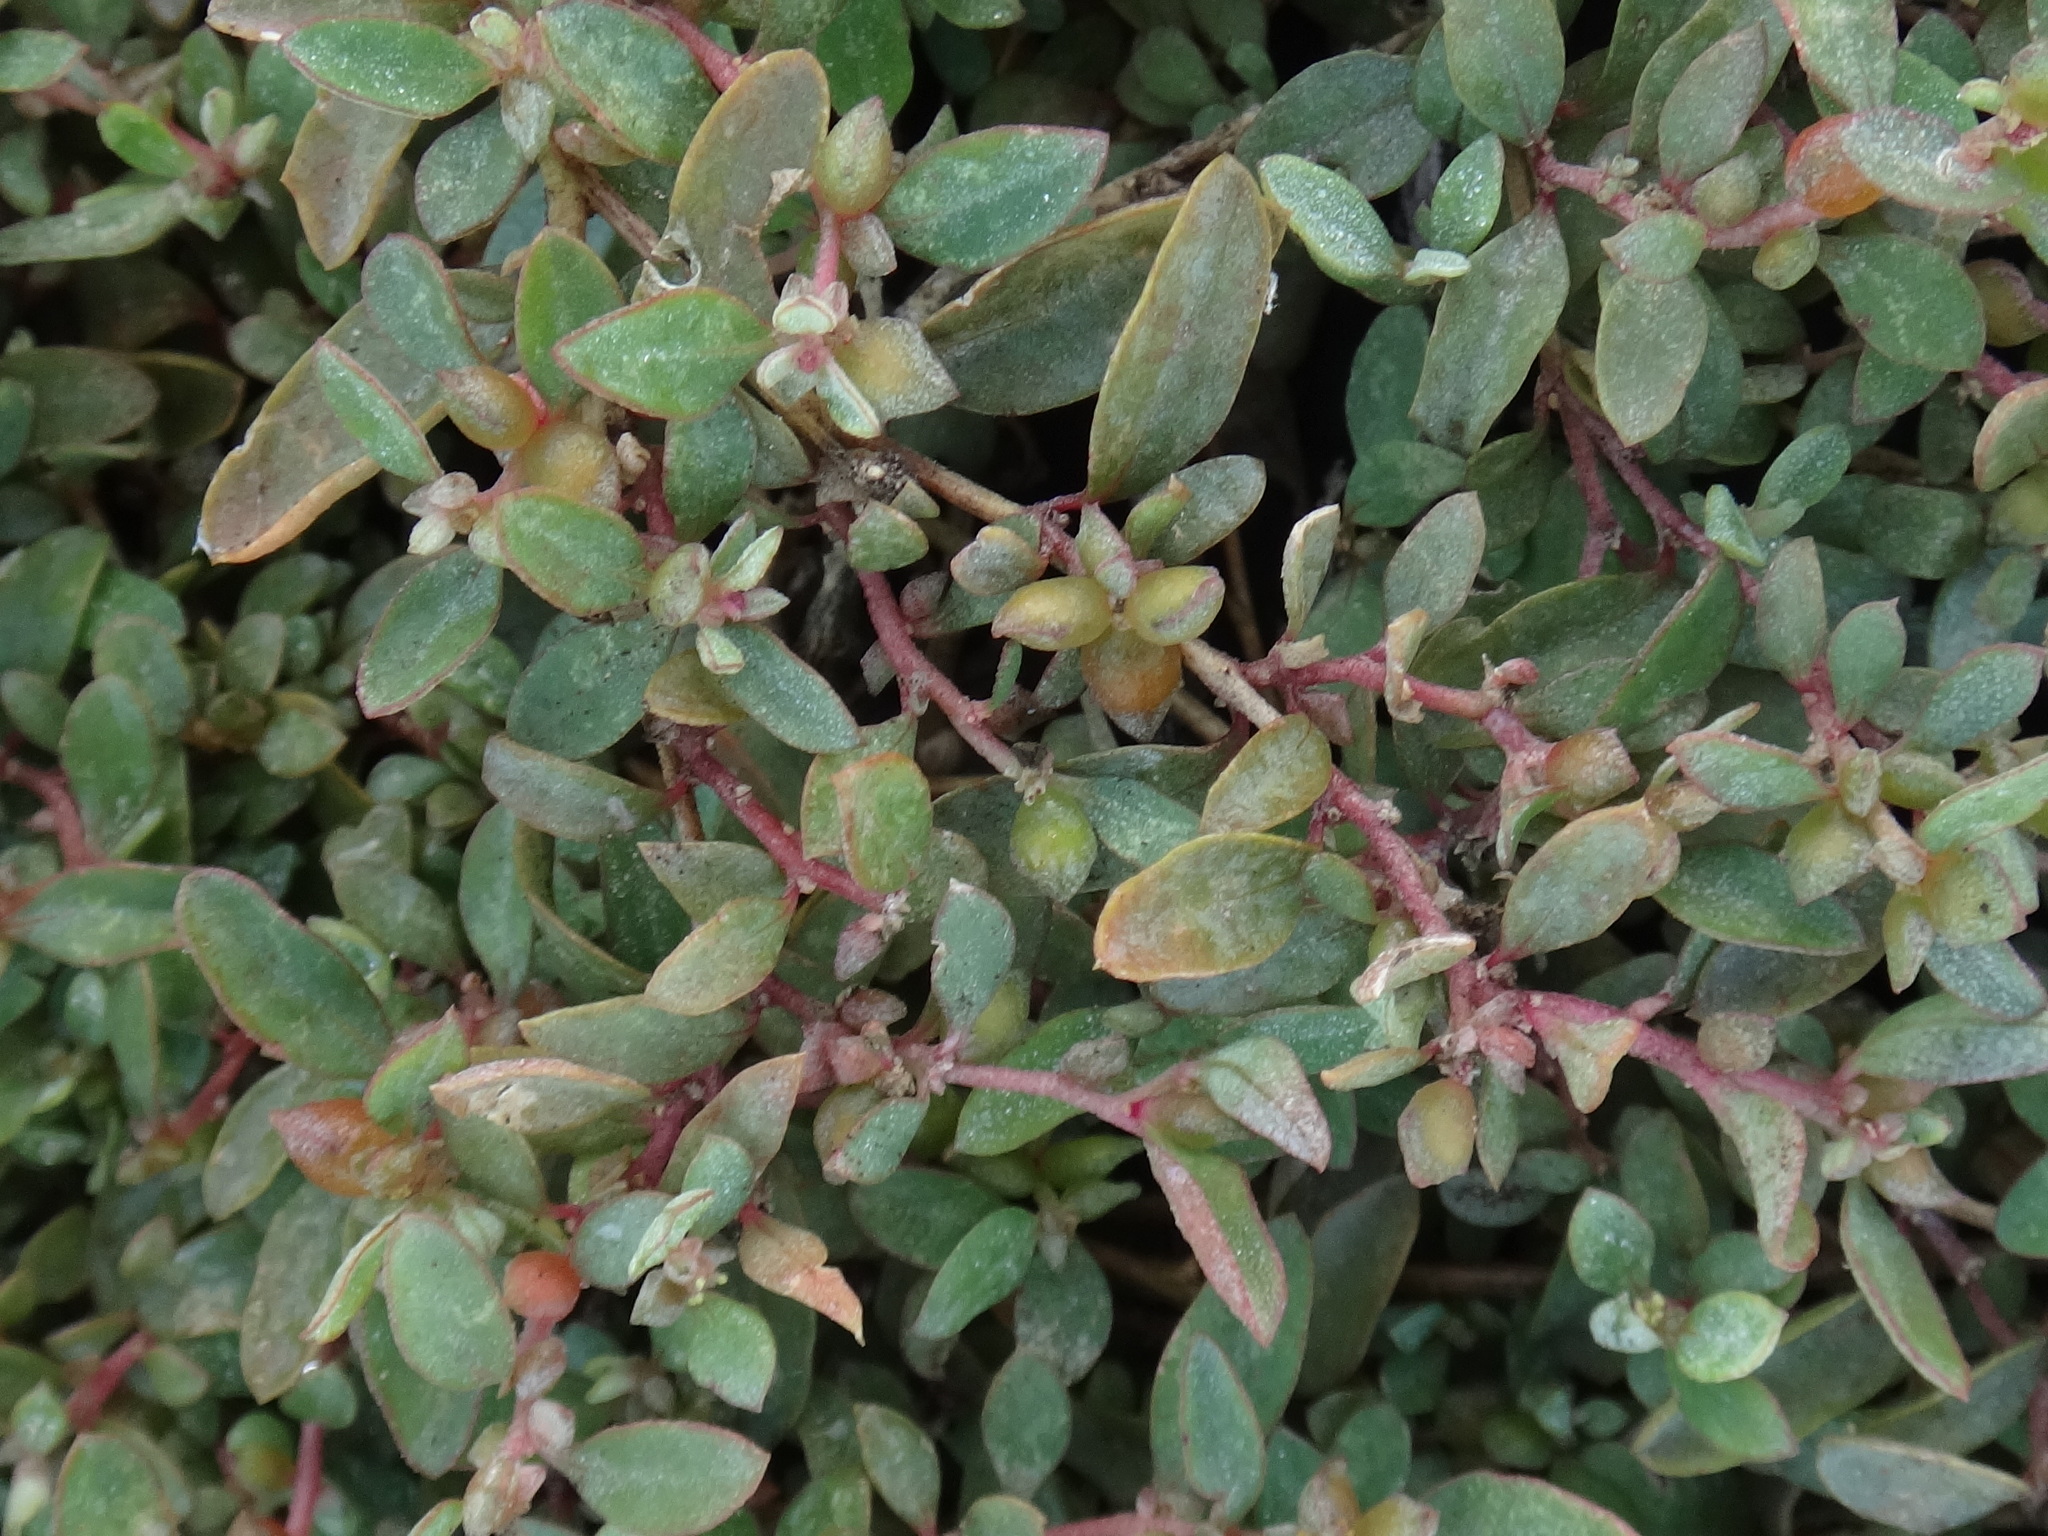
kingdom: Plantae
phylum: Tracheophyta
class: Magnoliopsida
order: Caryophyllales
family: Amaranthaceae
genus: Atriplex
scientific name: Atriplex semibaccata
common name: Australian saltbush
